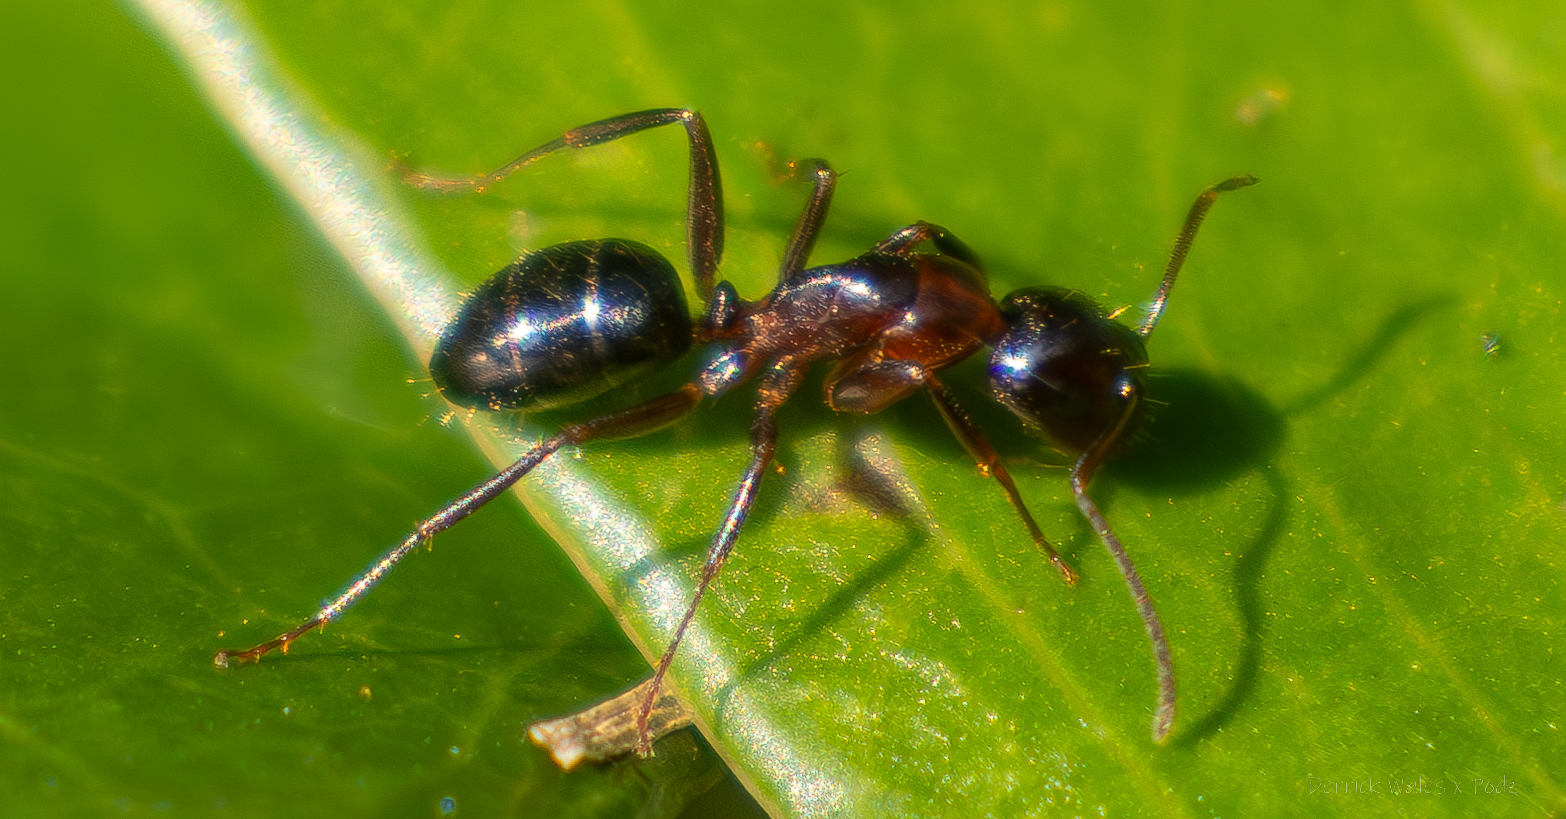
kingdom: Animalia
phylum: Arthropoda
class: Insecta
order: Hymenoptera
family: Formicidae
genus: Camponotus
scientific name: Camponotus nearcticus
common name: Smaller carpenter ant
